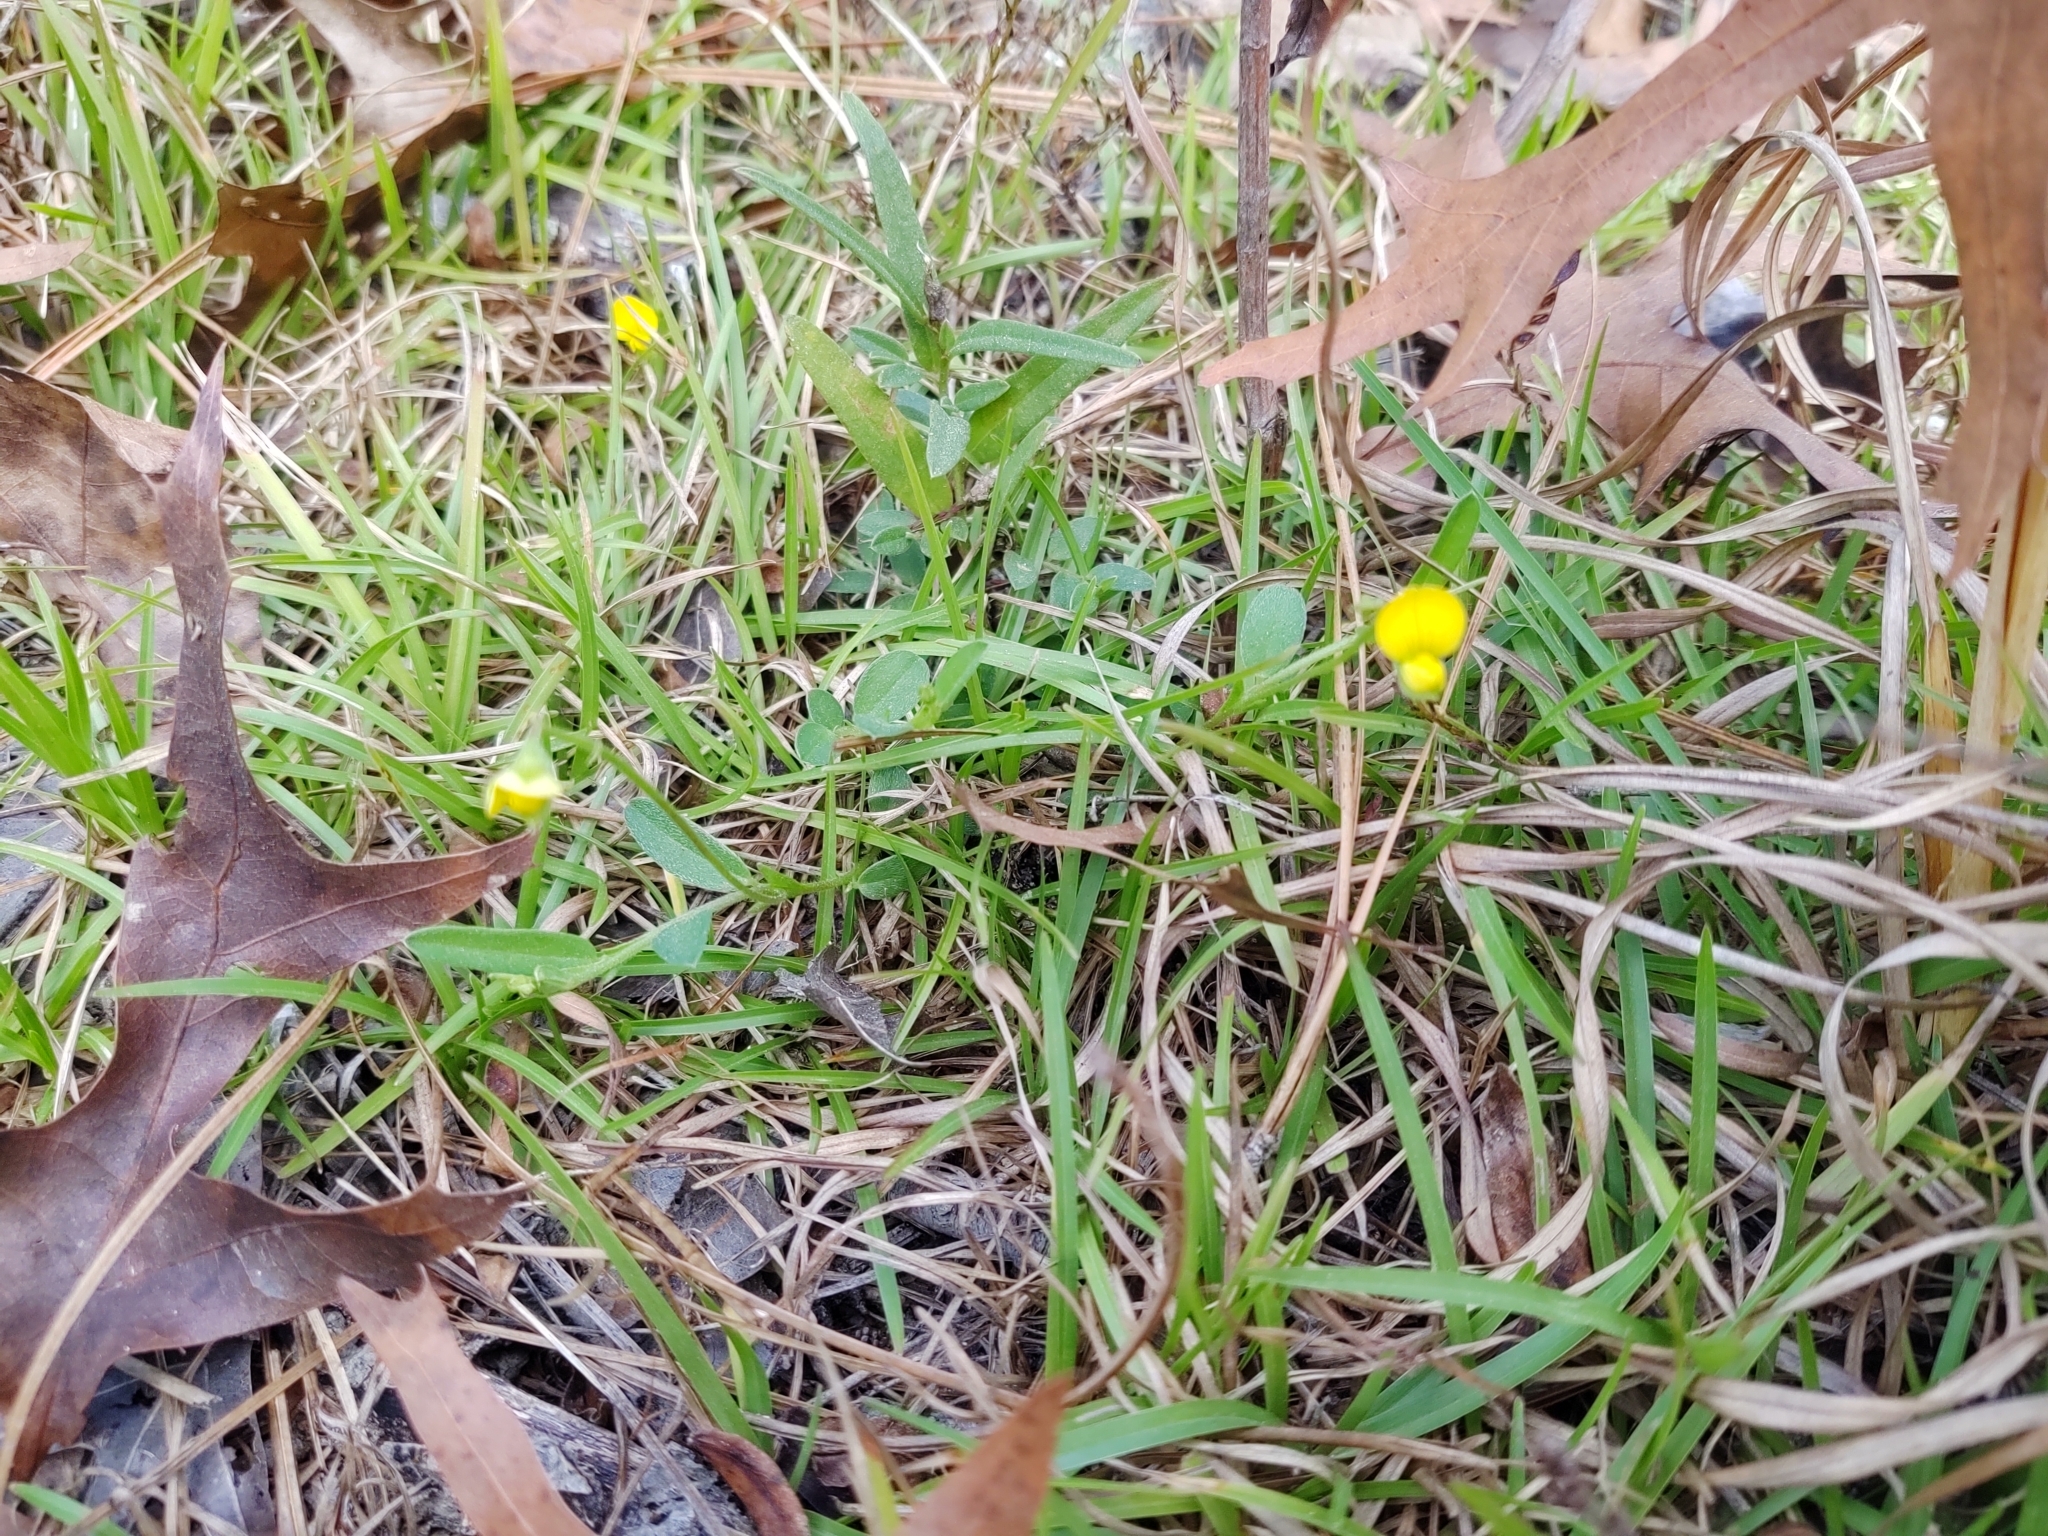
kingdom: Plantae
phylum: Tracheophyta
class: Magnoliopsida
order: Fabales
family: Fabaceae
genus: Crotalaria
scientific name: Crotalaria rotundifolia
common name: Prostrate rattlebox
